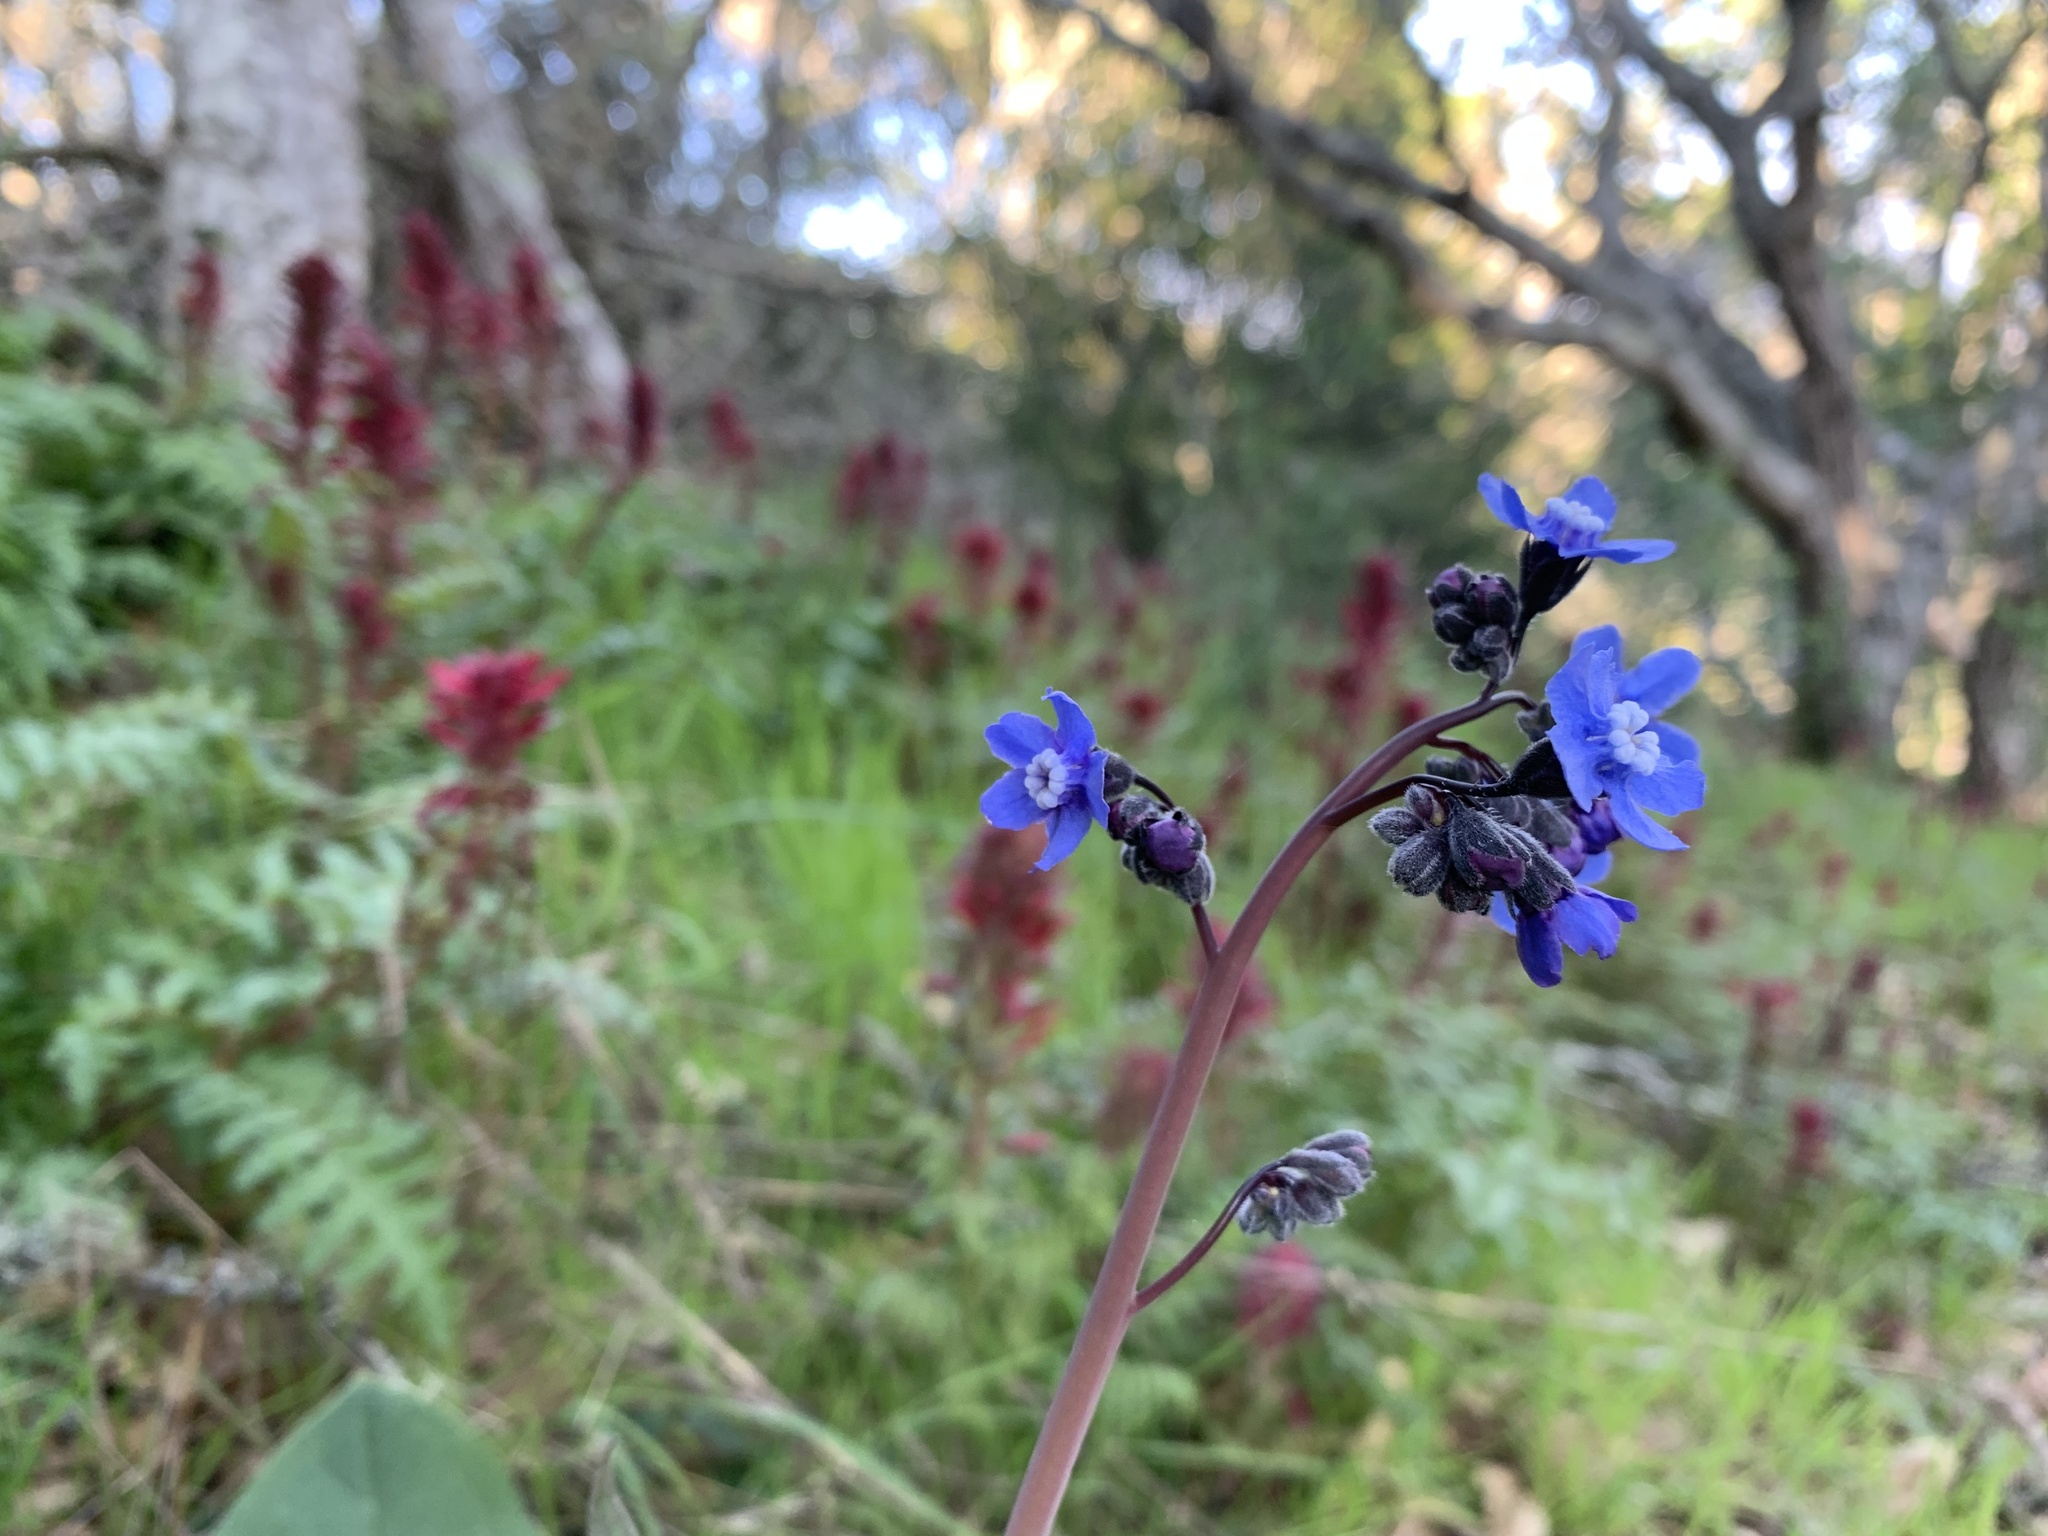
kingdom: Plantae
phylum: Tracheophyta
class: Magnoliopsida
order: Boraginales
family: Boraginaceae
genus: Adelinia
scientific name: Adelinia grande
